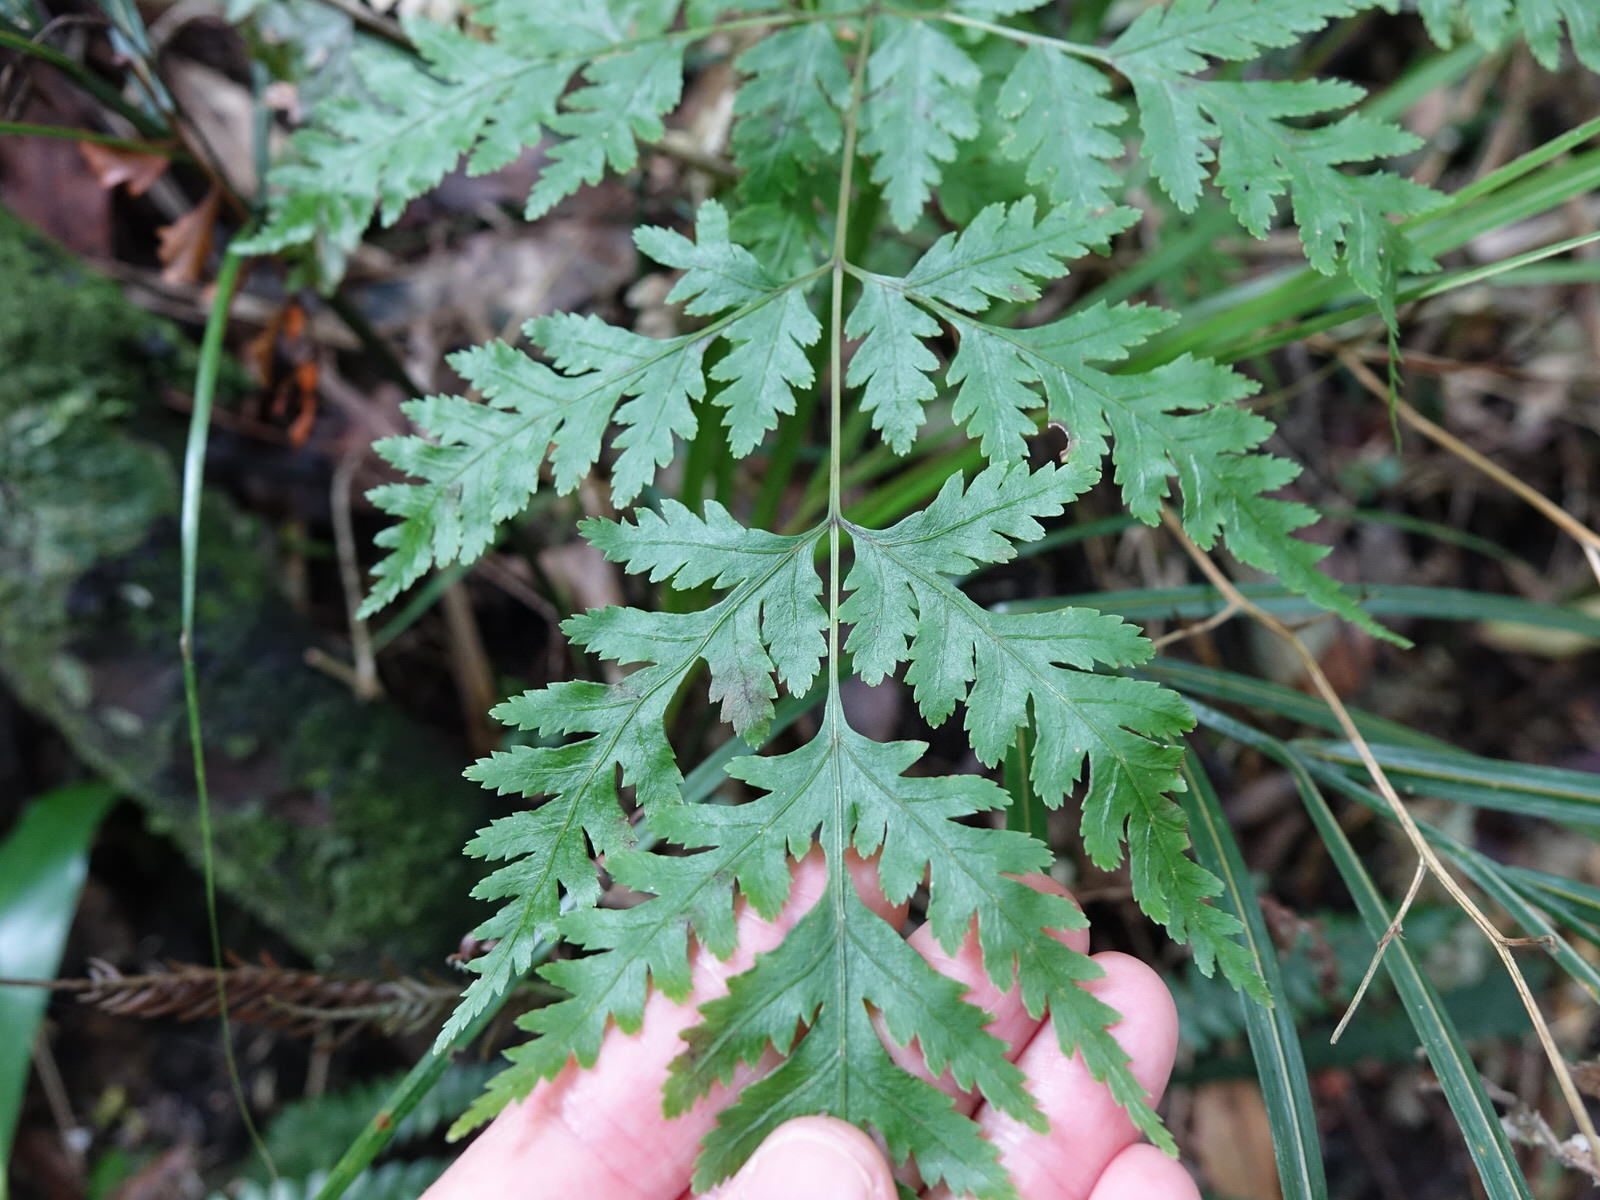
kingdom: Plantae
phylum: Tracheophyta
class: Polypodiopsida
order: Polypodiales
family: Pteridaceae
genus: Pteris
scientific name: Pteris macilenta
